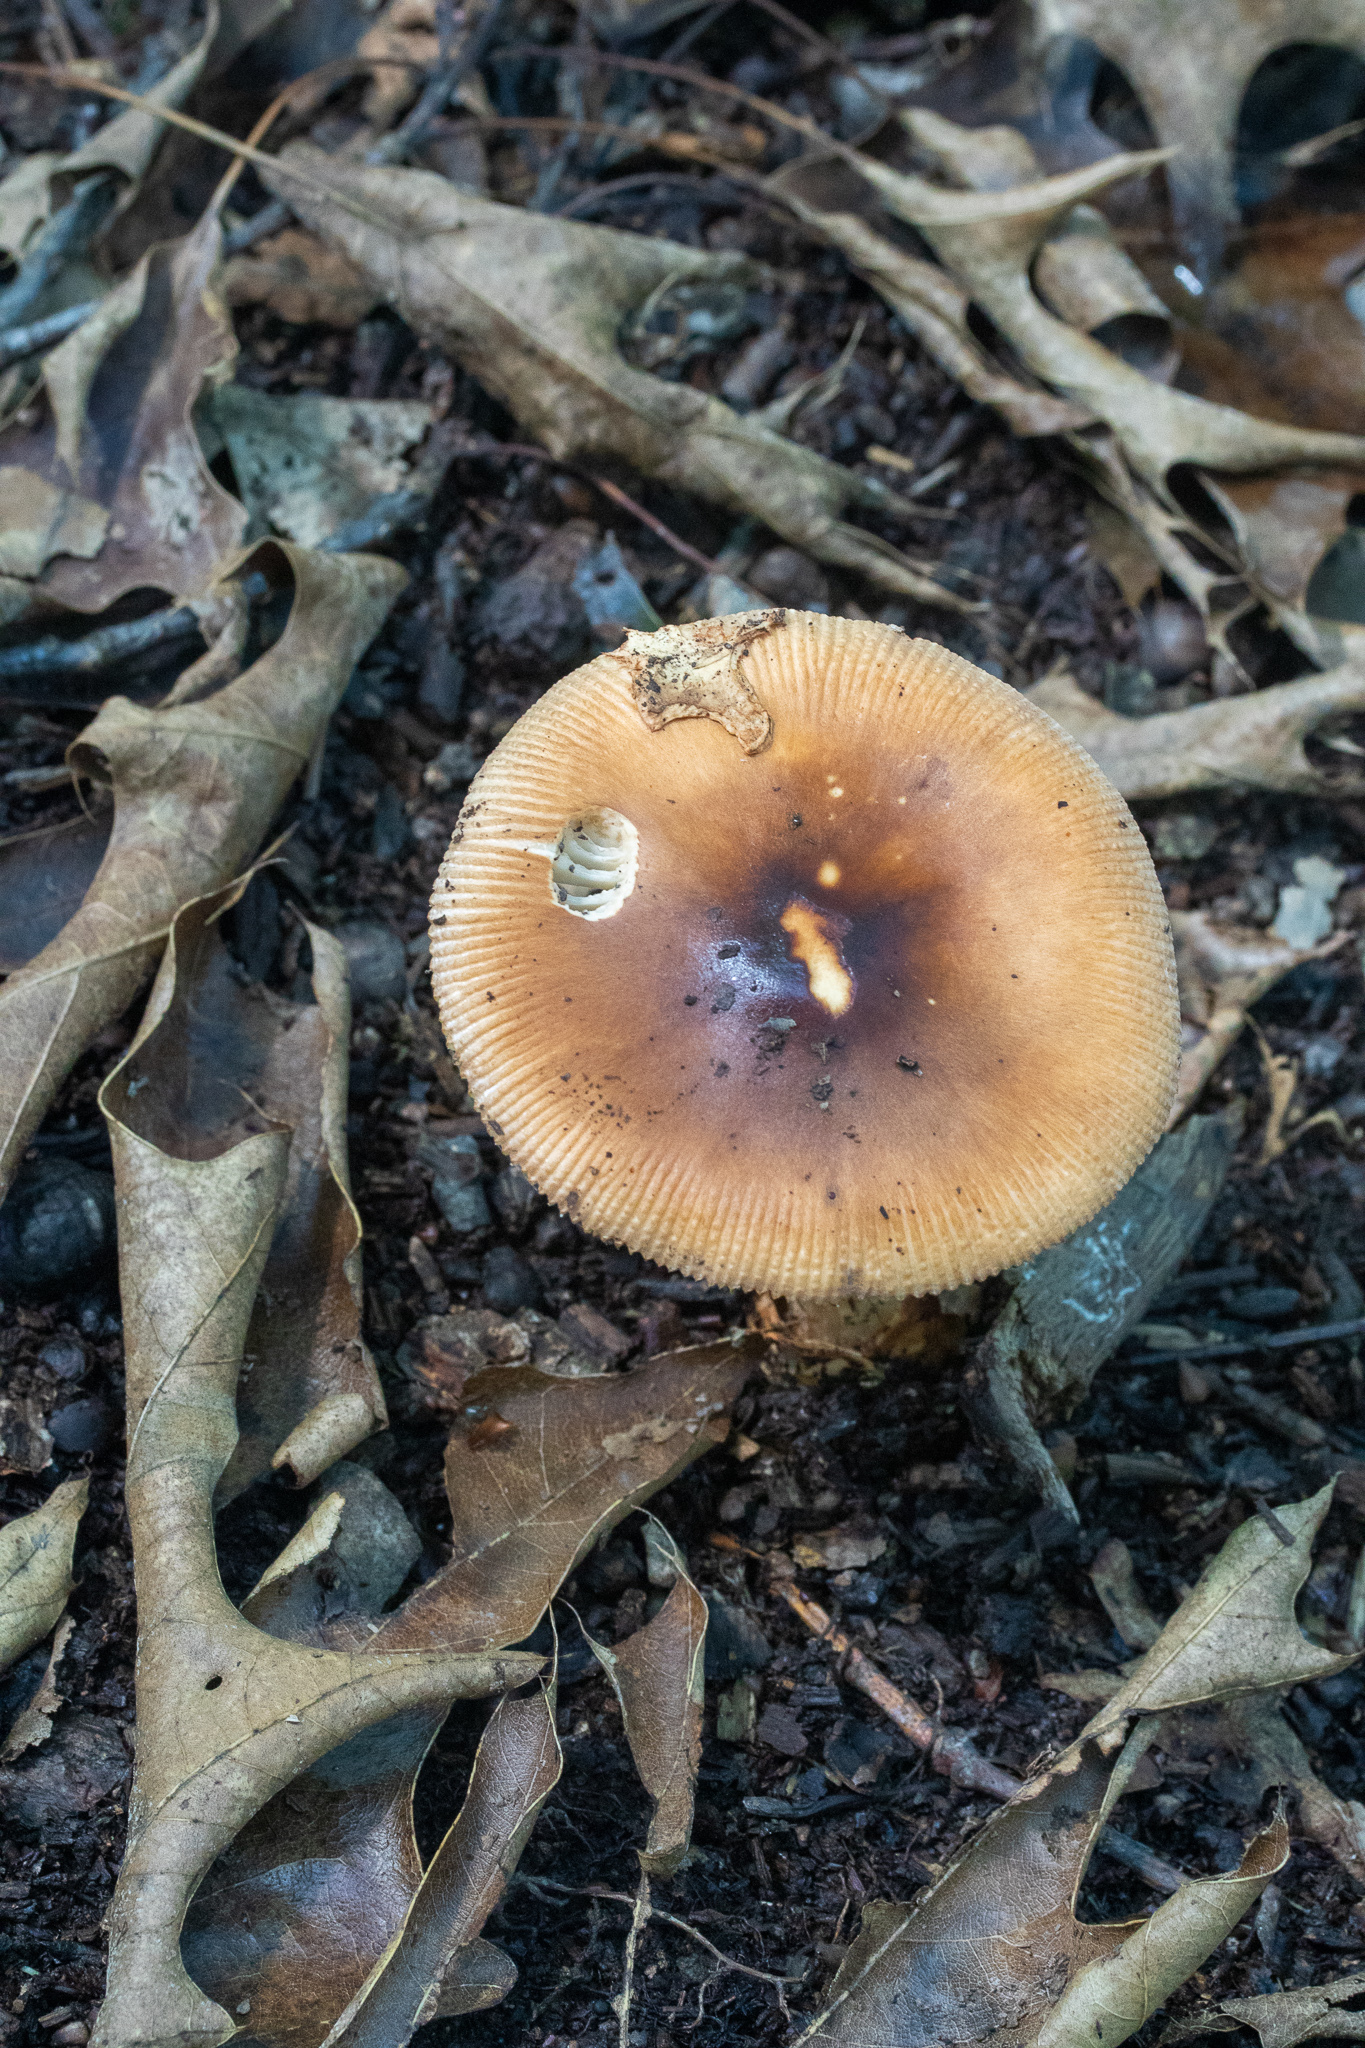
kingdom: Fungi
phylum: Basidiomycota
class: Agaricomycetes
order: Agaricales
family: Amanitaceae
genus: Amanita
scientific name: Amanita fulva
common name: Tawny grisette
